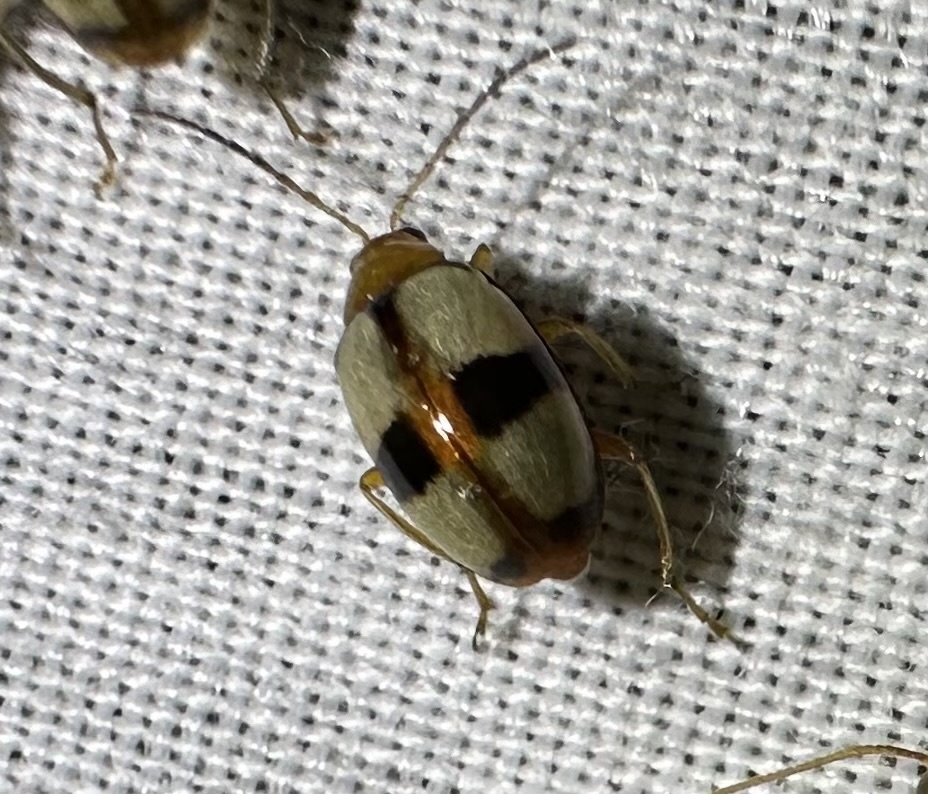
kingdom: Animalia
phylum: Arthropoda
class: Insecta
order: Coleoptera
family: Chrysomelidae
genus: Monolepta
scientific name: Monolepta
